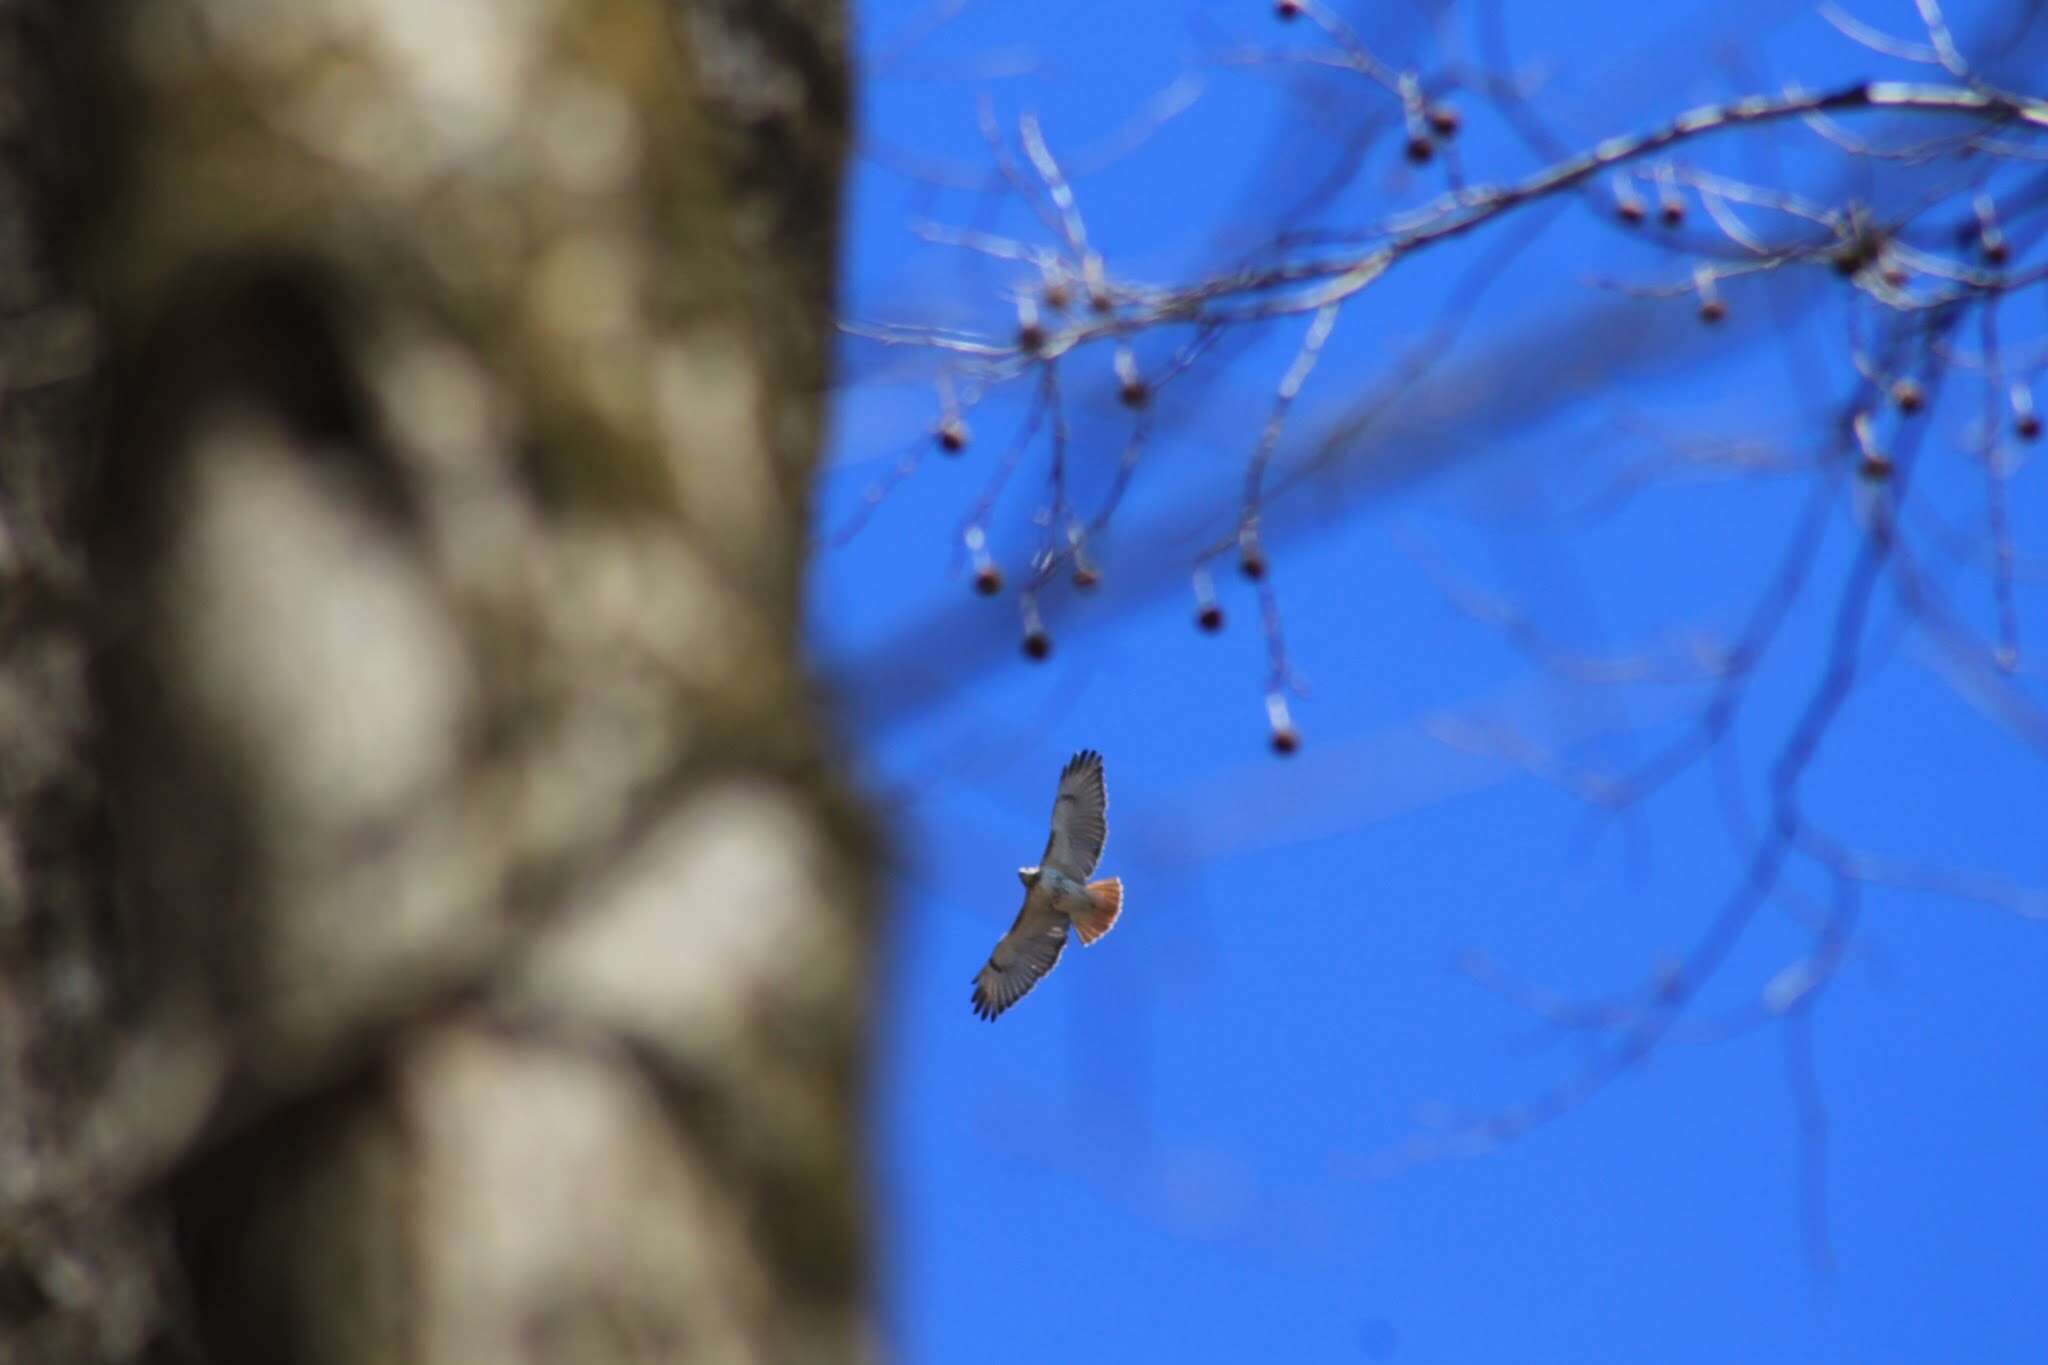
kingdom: Animalia
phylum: Chordata
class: Aves
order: Accipitriformes
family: Accipitridae
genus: Buteo
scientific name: Buteo jamaicensis
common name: Red-tailed hawk
